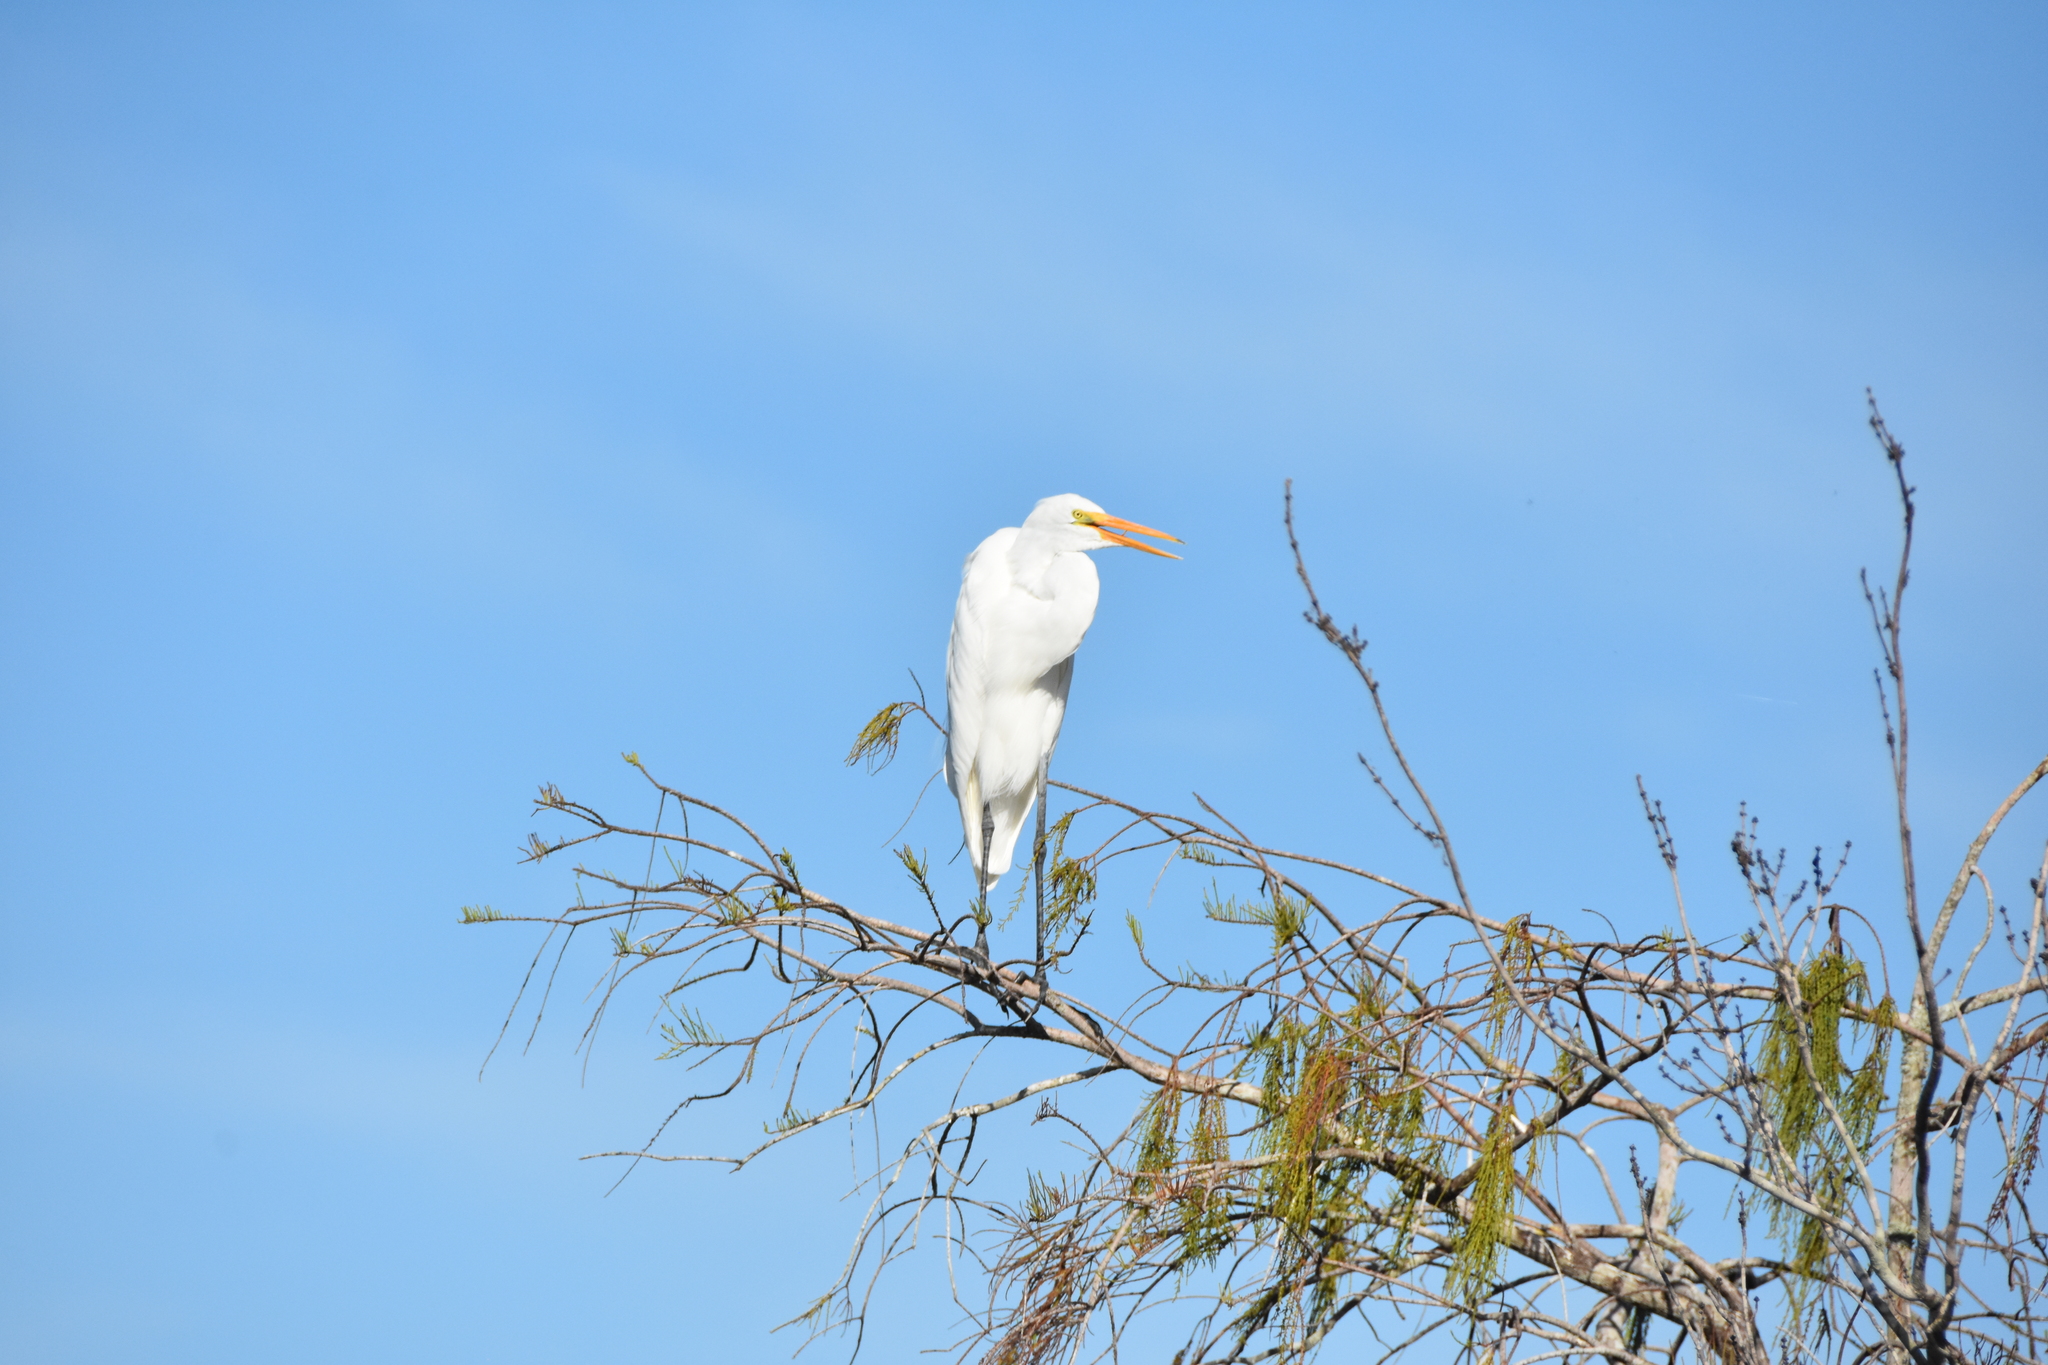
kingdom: Animalia
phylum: Chordata
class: Aves
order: Pelecaniformes
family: Ardeidae
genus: Ardea
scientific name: Ardea alba
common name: Great egret
